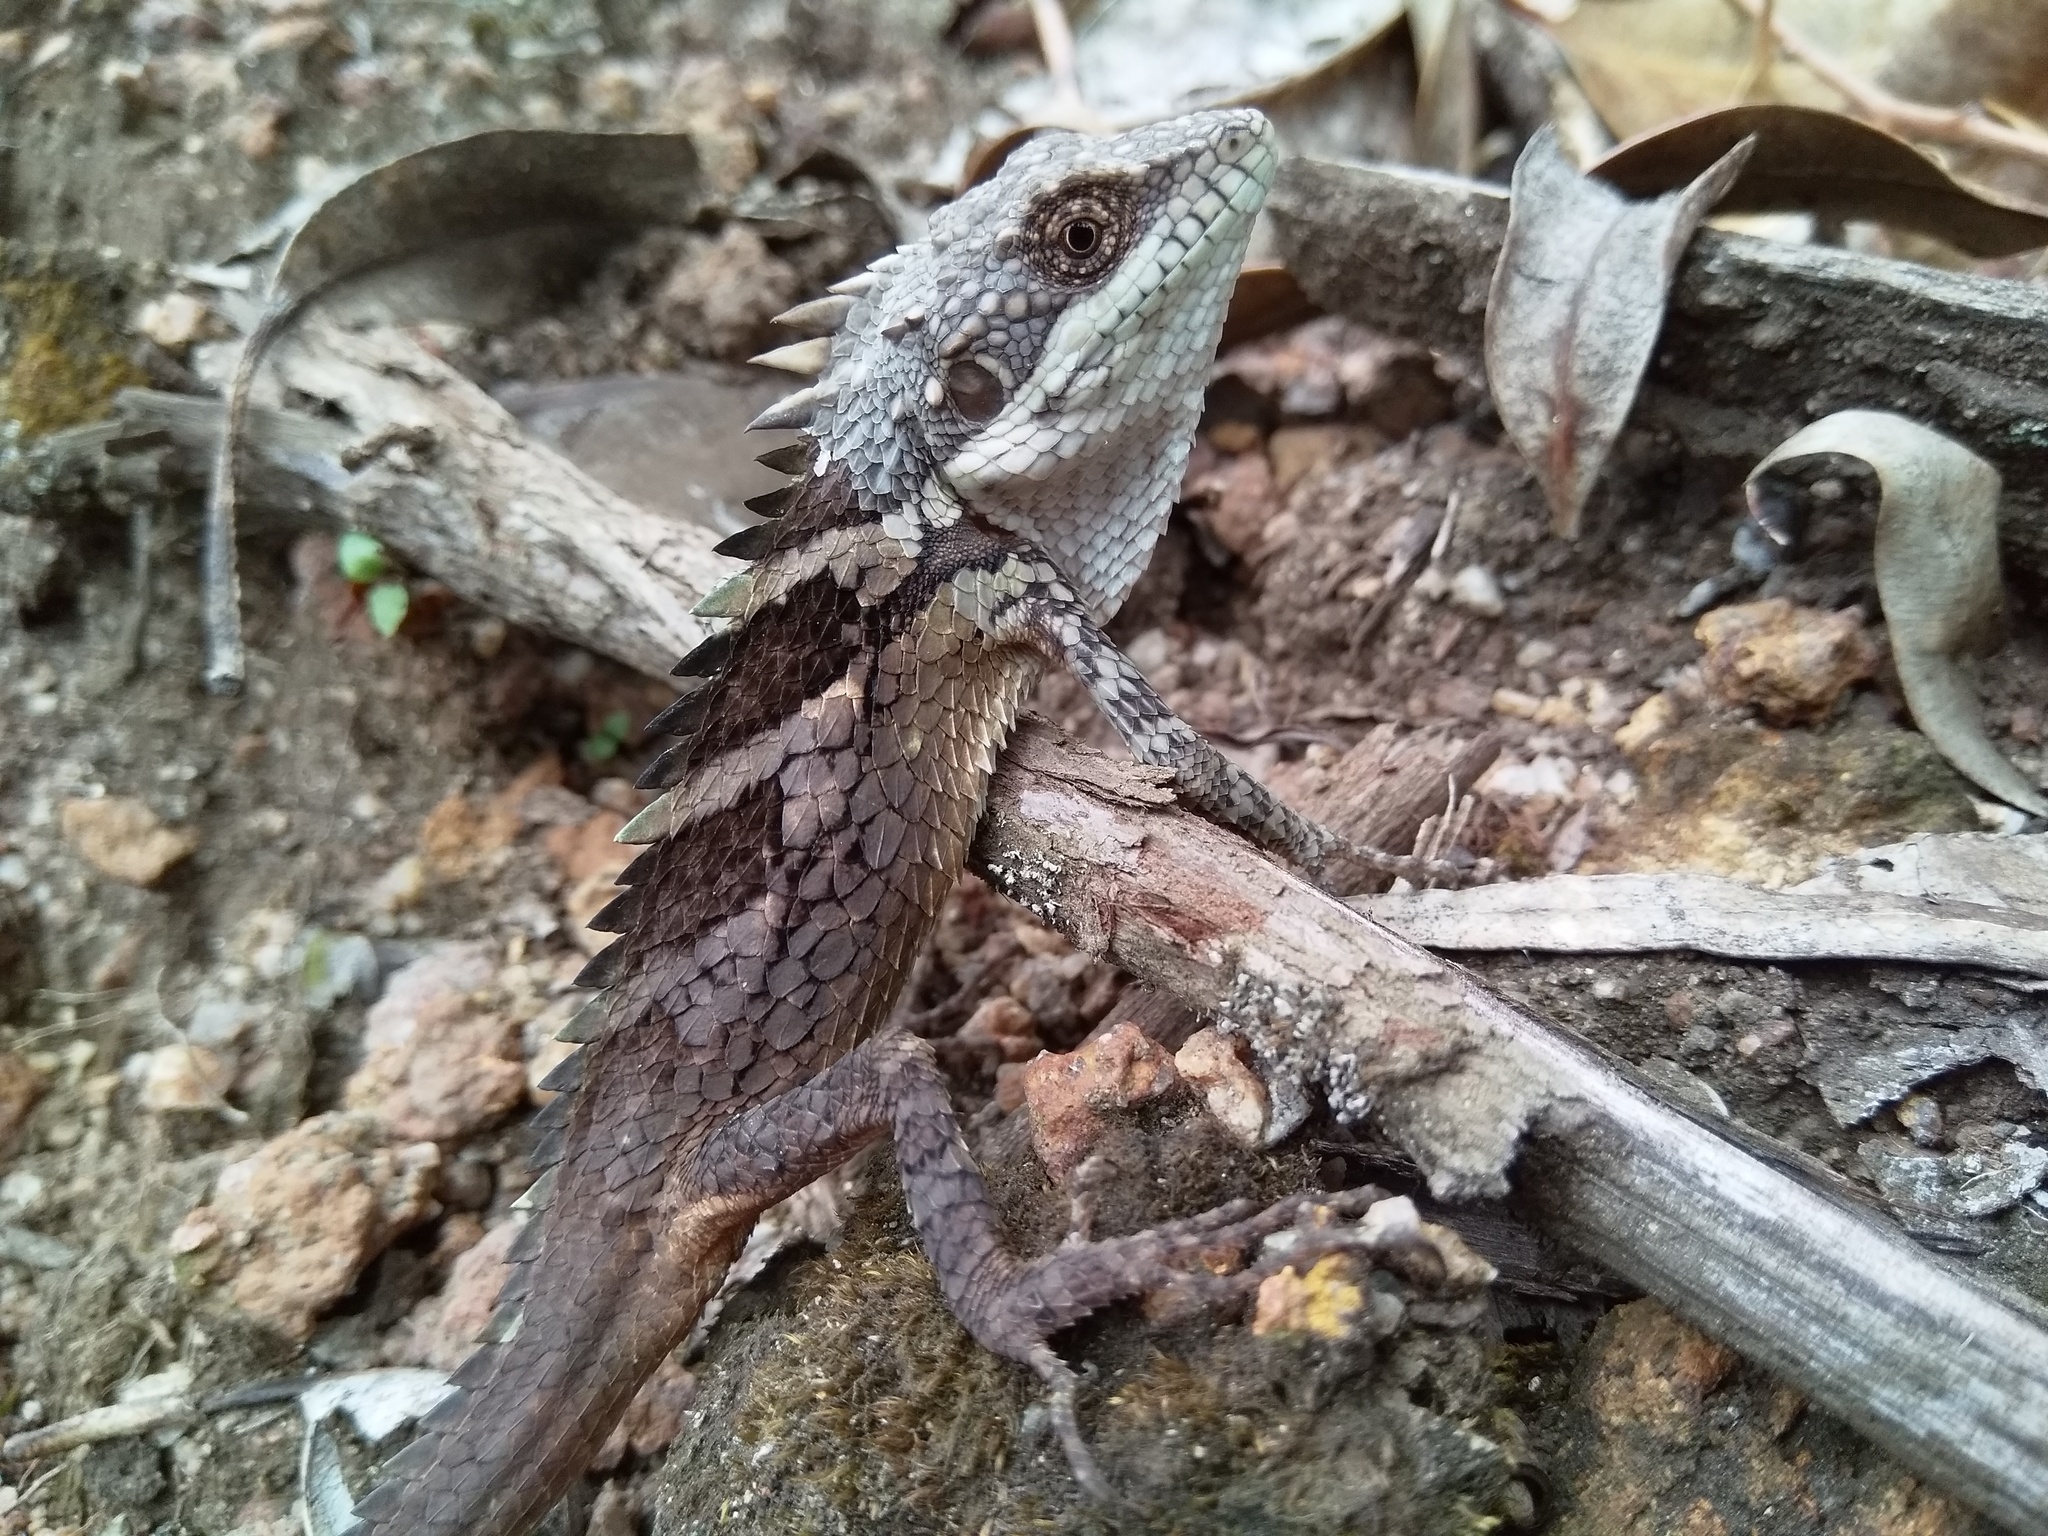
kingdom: Animalia
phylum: Chordata
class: Squamata
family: Agamidae
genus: Salea
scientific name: Salea anamallayana
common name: Anaimalai spiny lizard
